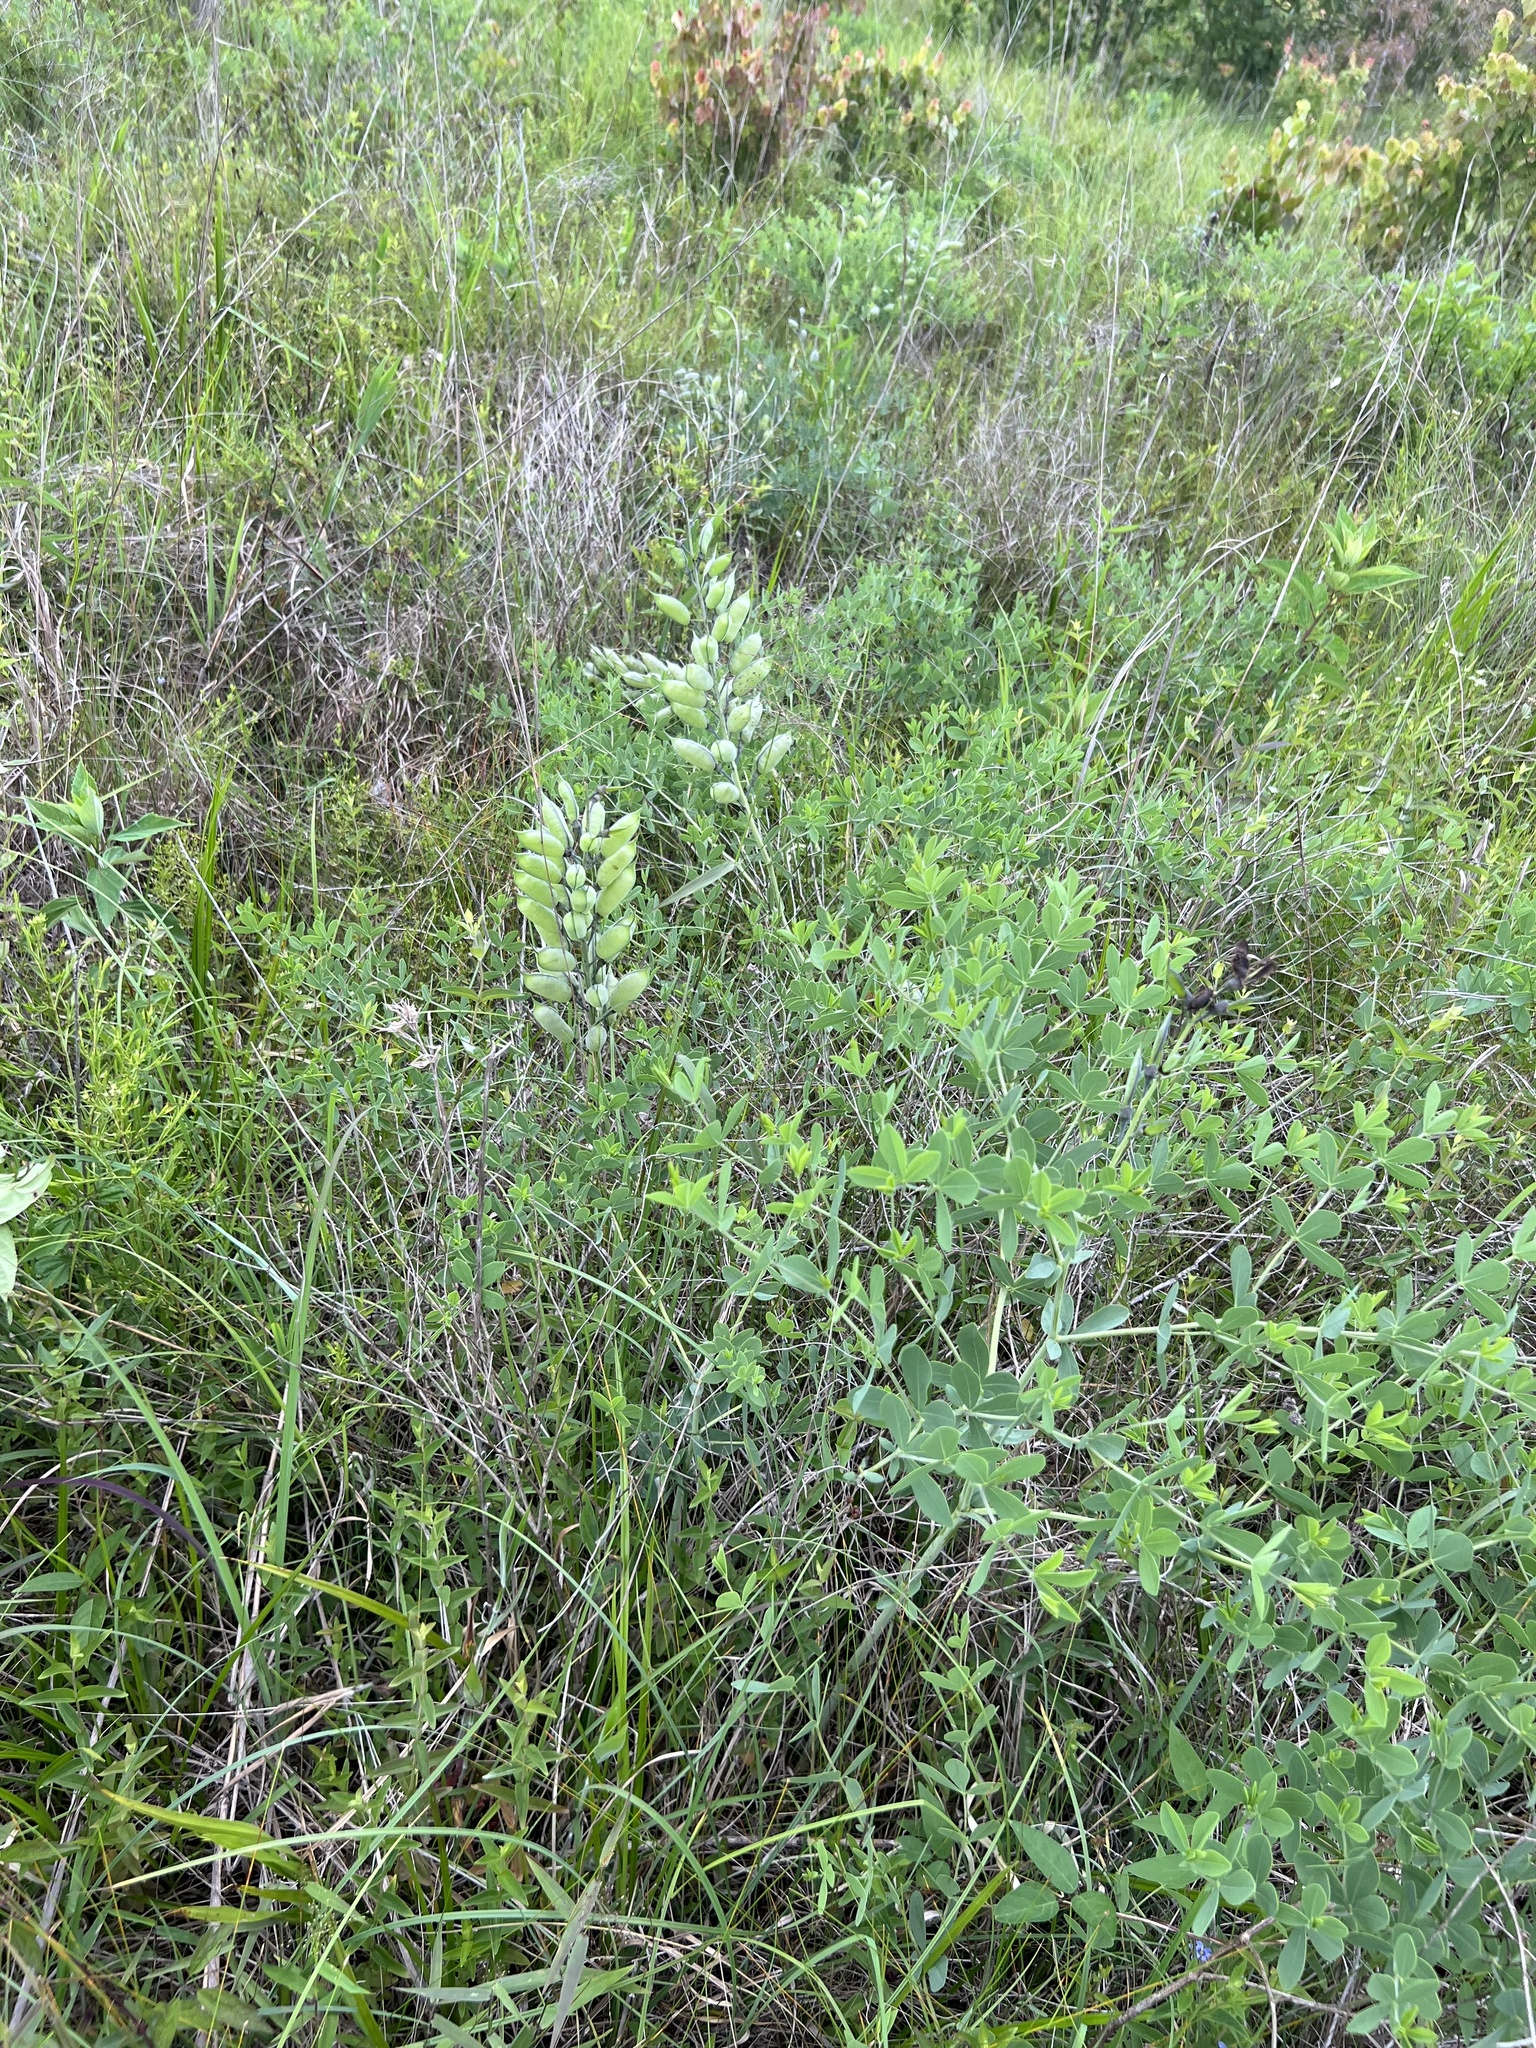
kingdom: Plantae
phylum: Tracheophyta
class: Magnoliopsida
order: Fabales
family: Fabaceae
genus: Baptisia
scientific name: Baptisia aberrans
